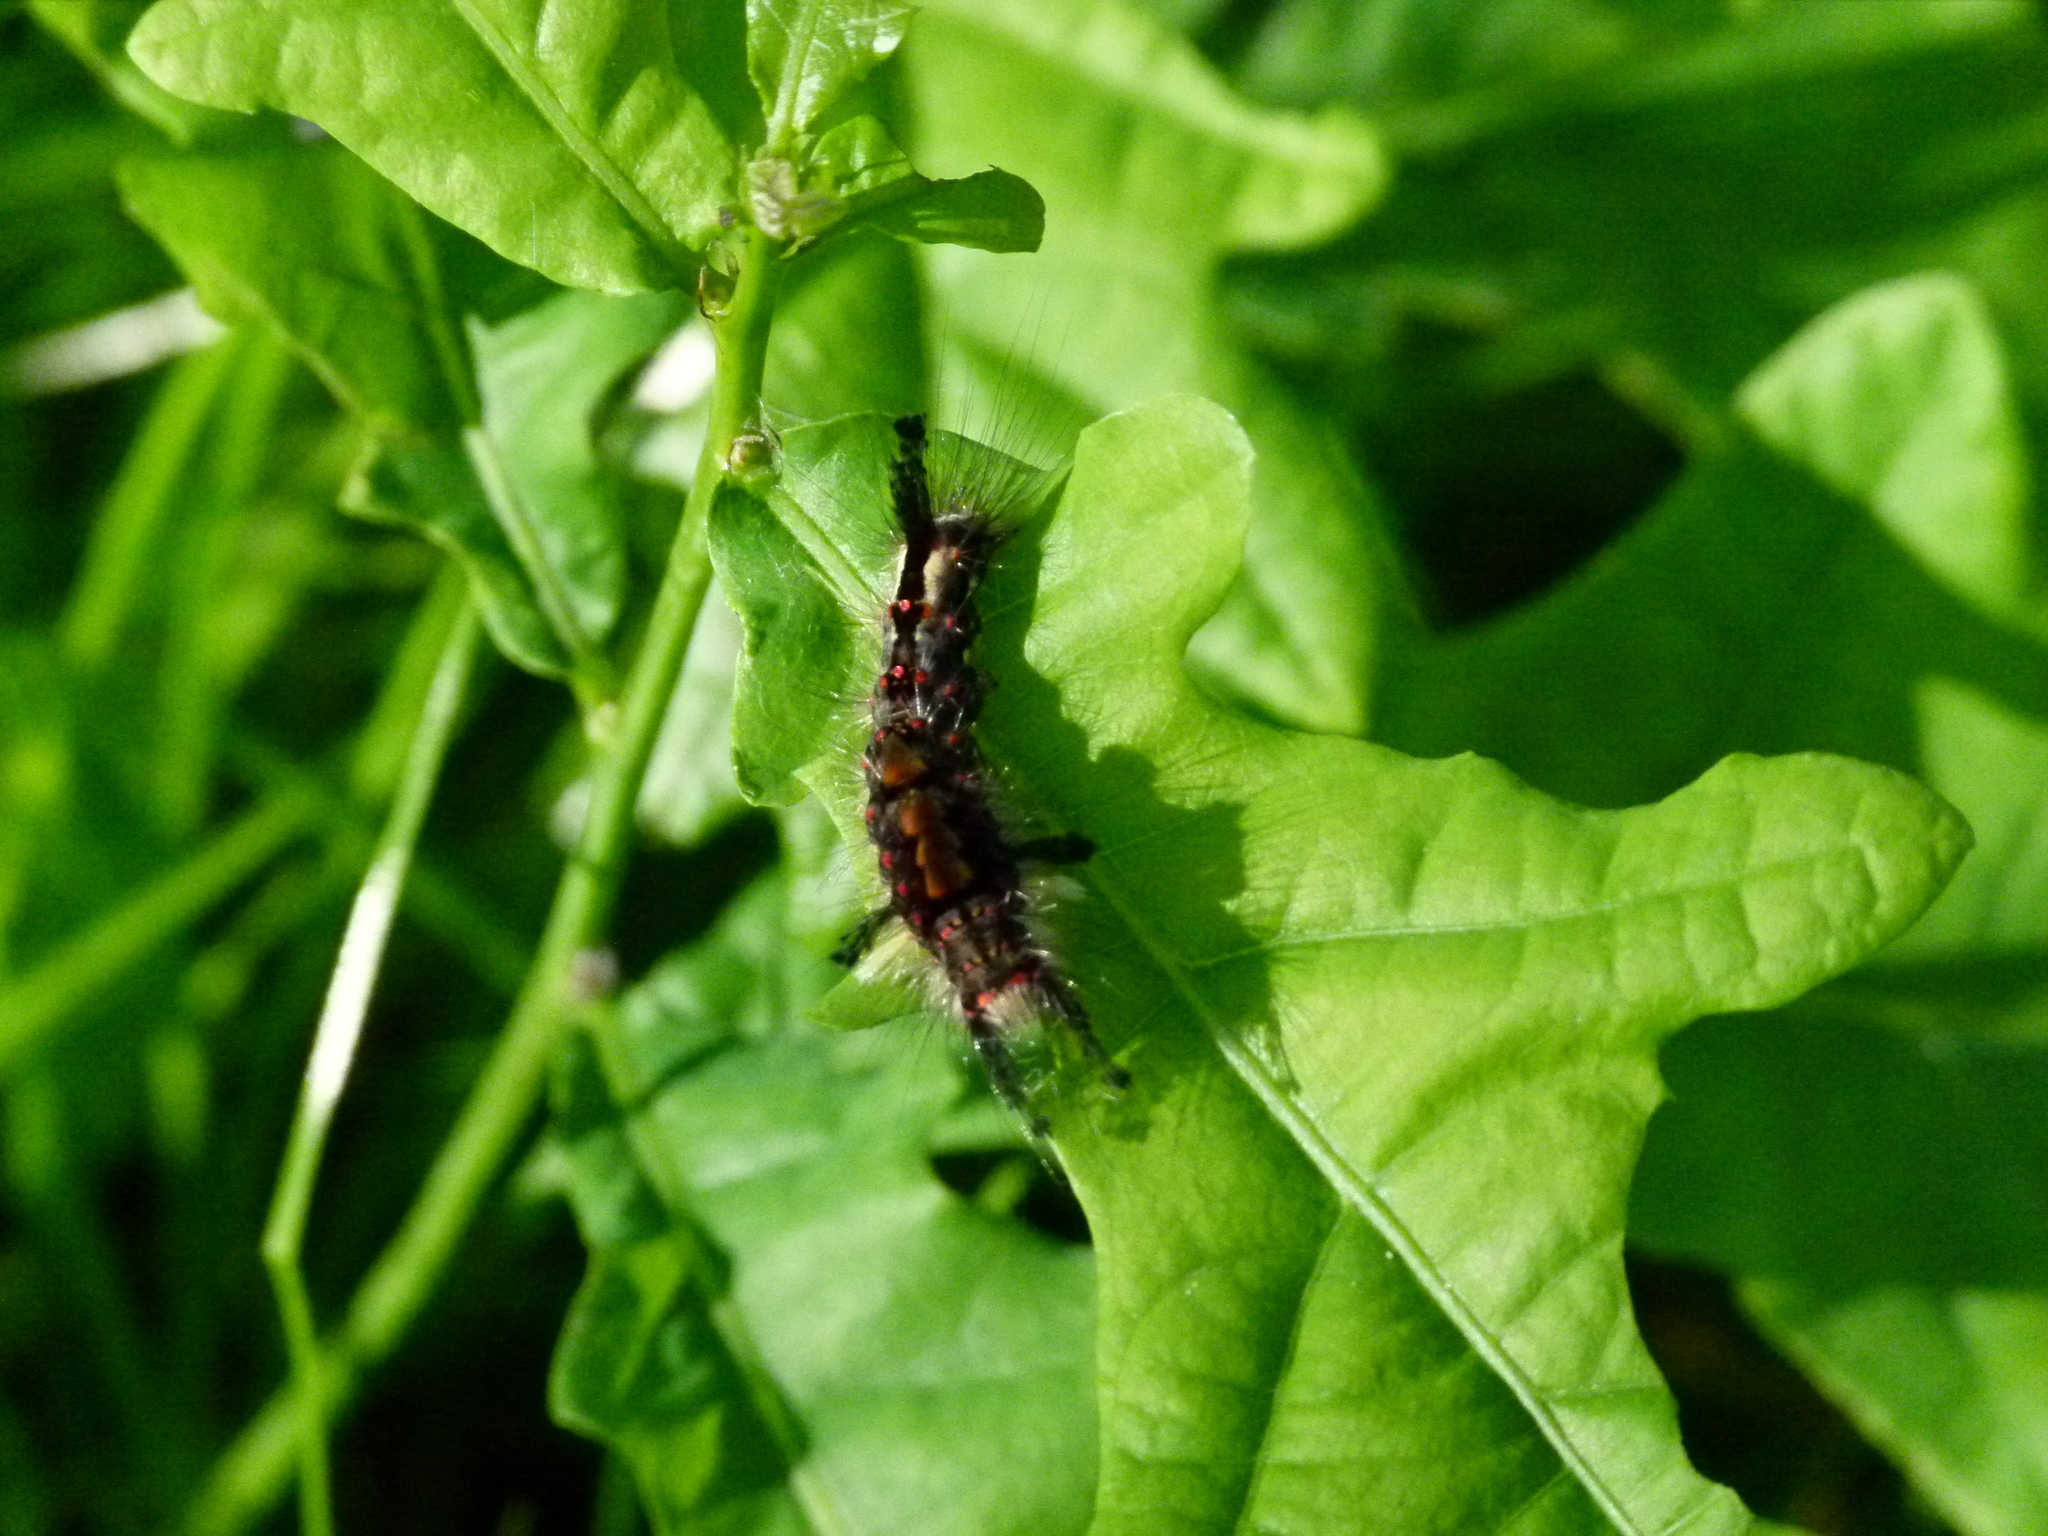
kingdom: Animalia
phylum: Arthropoda
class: Insecta
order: Lepidoptera
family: Erebidae
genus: Orgyia
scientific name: Orgyia antiqua
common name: Vapourer
